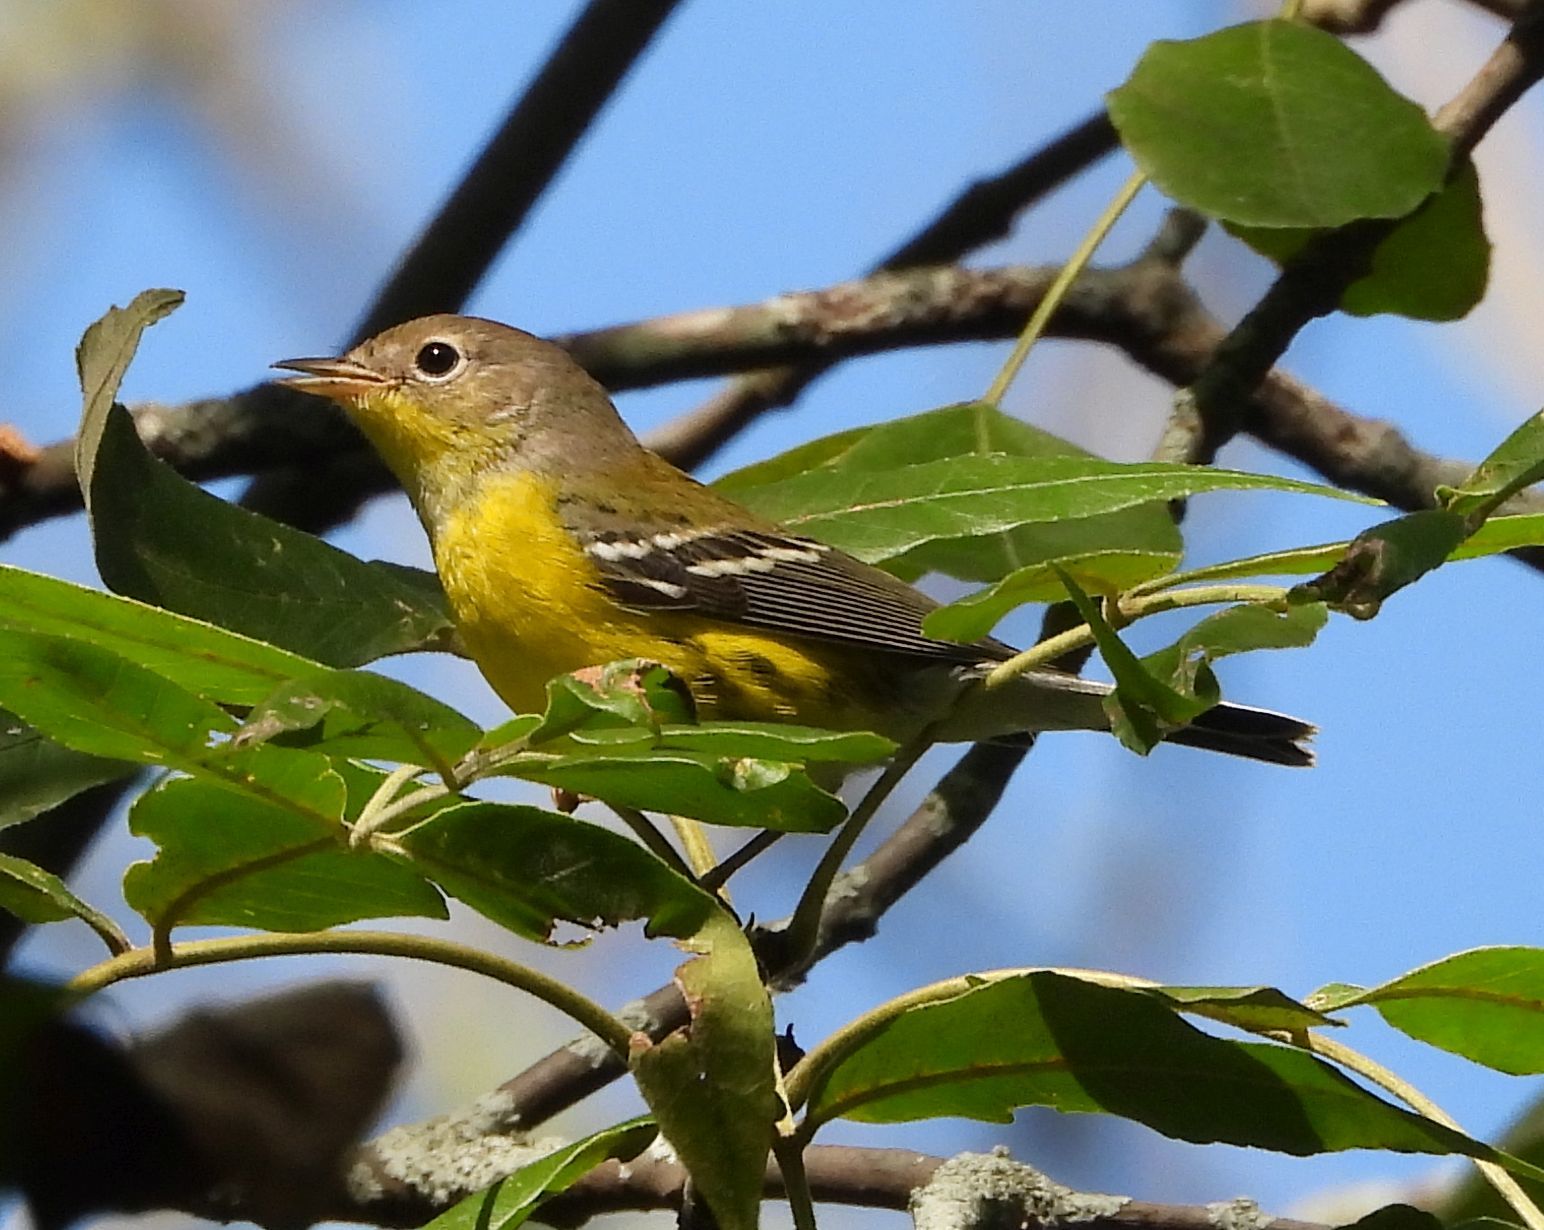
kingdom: Animalia
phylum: Chordata
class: Aves
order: Passeriformes
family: Parulidae
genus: Setophaga
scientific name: Setophaga magnolia
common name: Magnolia warbler
